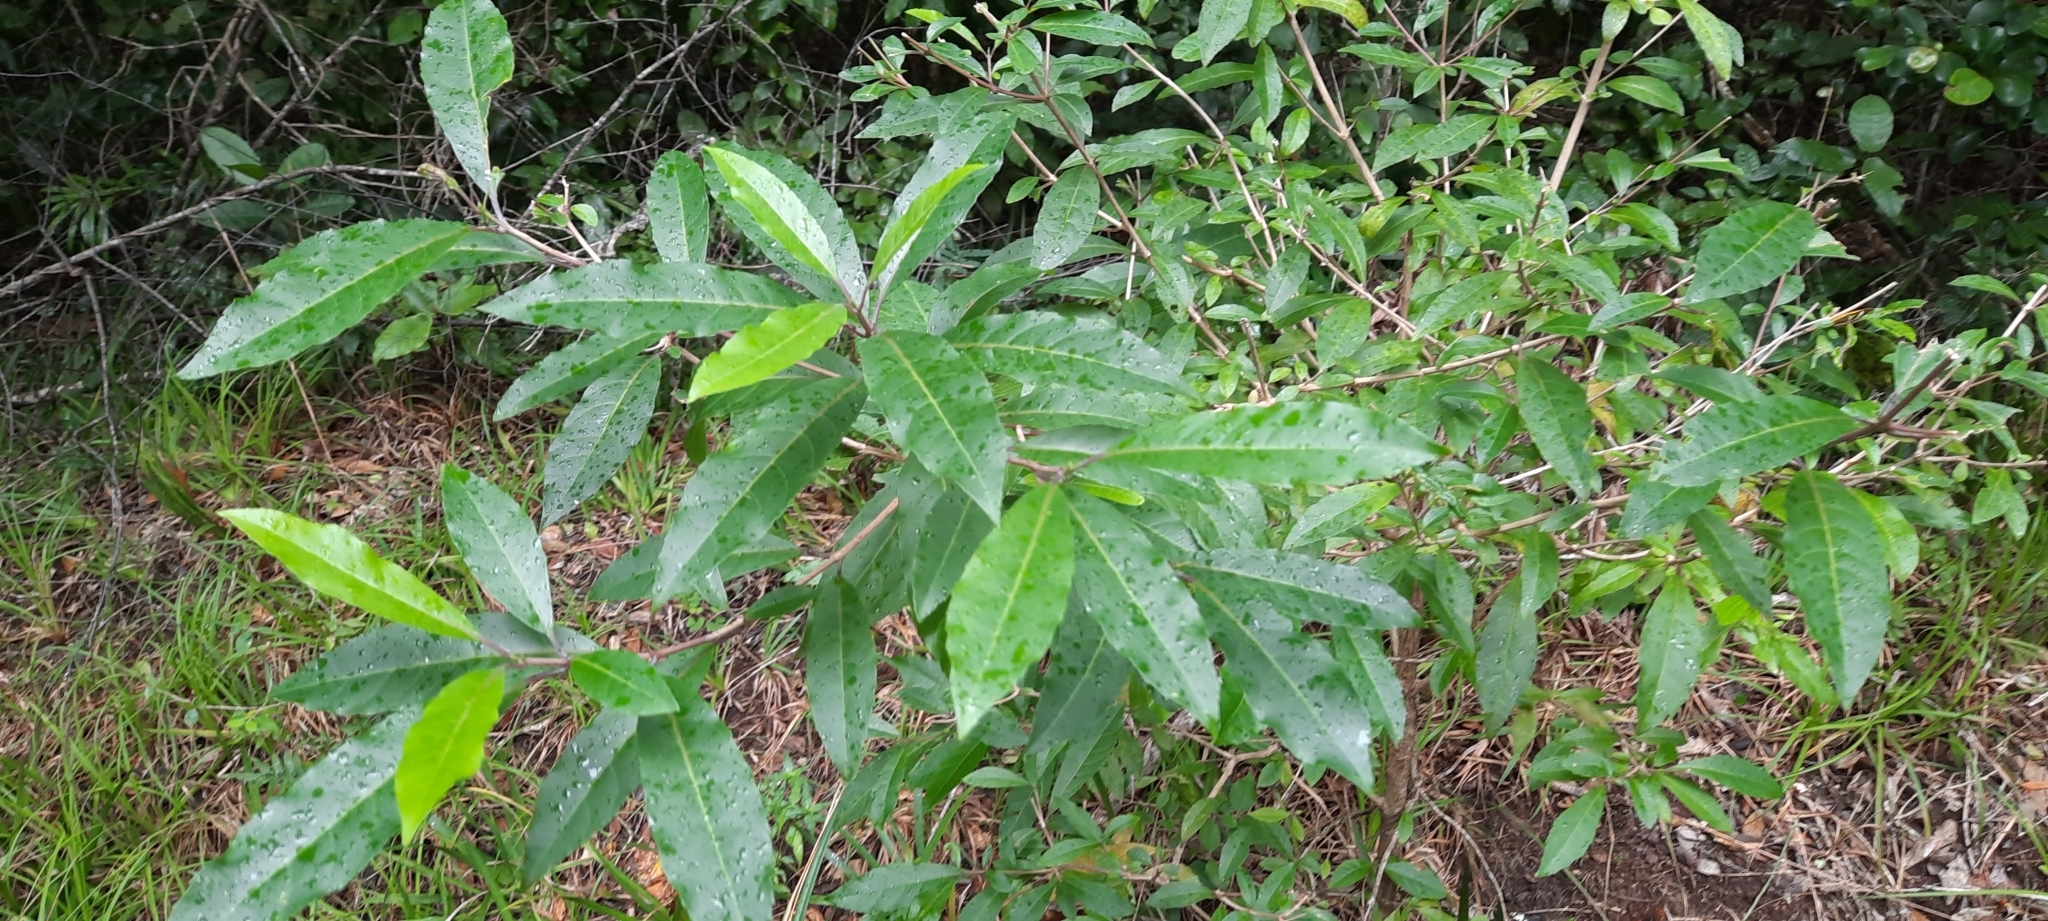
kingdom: Plantae
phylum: Tracheophyta
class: Magnoliopsida
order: Lamiales
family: Stilbaceae
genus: Nuxia
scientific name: Nuxia floribunda
